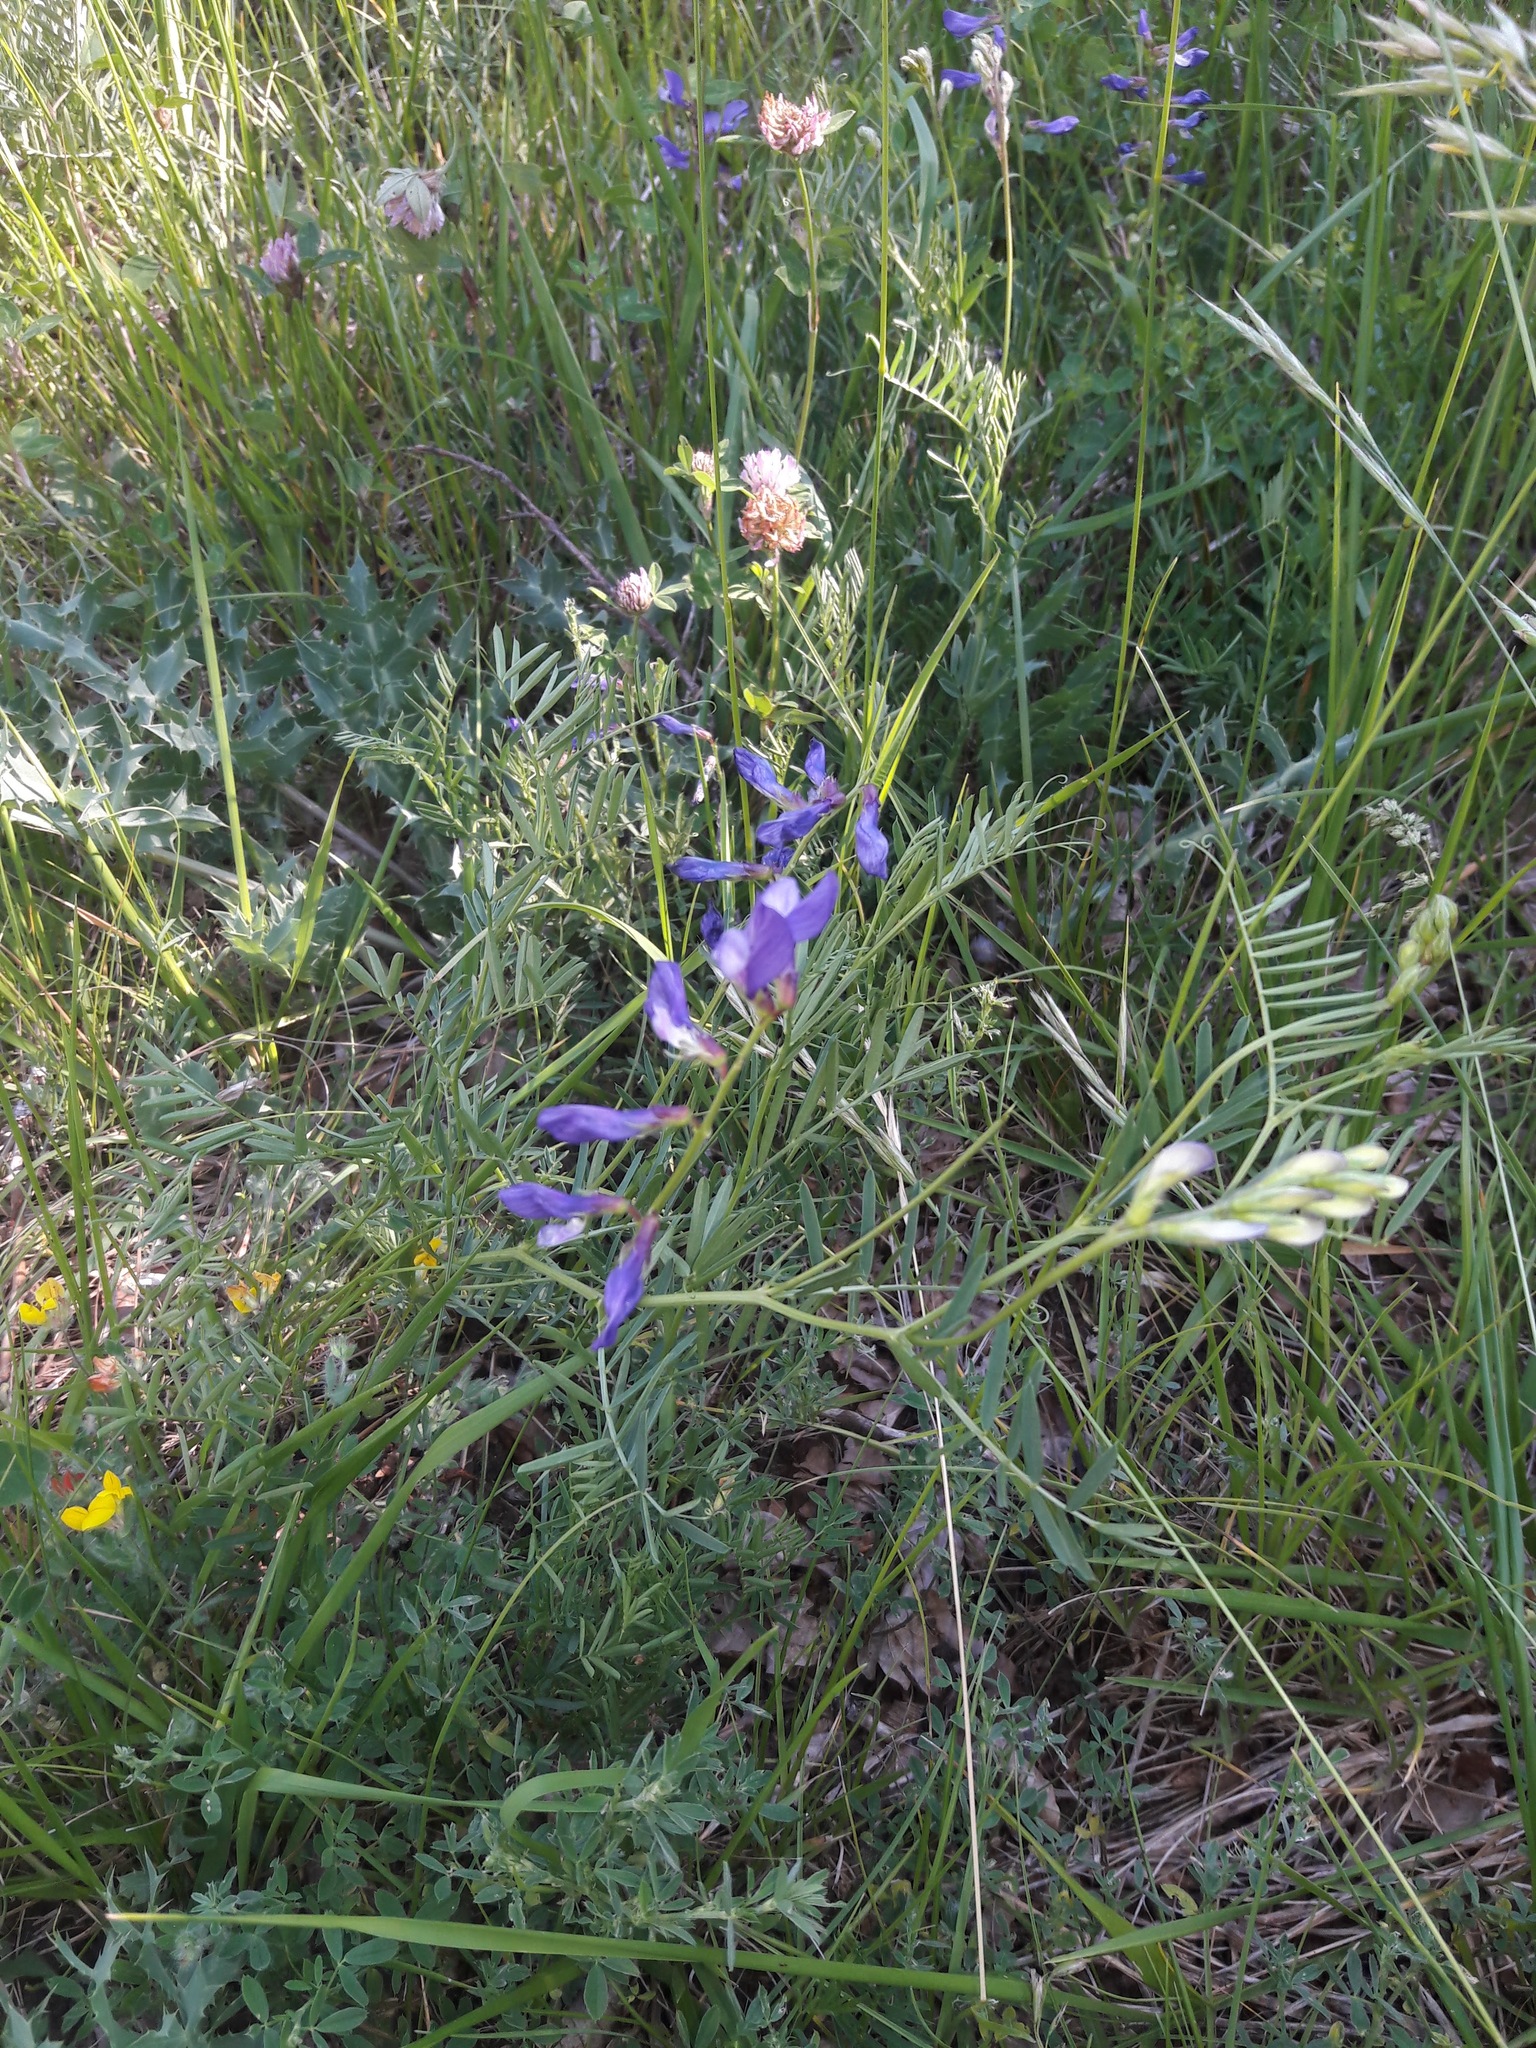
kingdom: Plantae
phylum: Tracheophyta
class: Magnoliopsida
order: Fabales
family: Fabaceae
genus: Vicia
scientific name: Vicia onobrychioides
